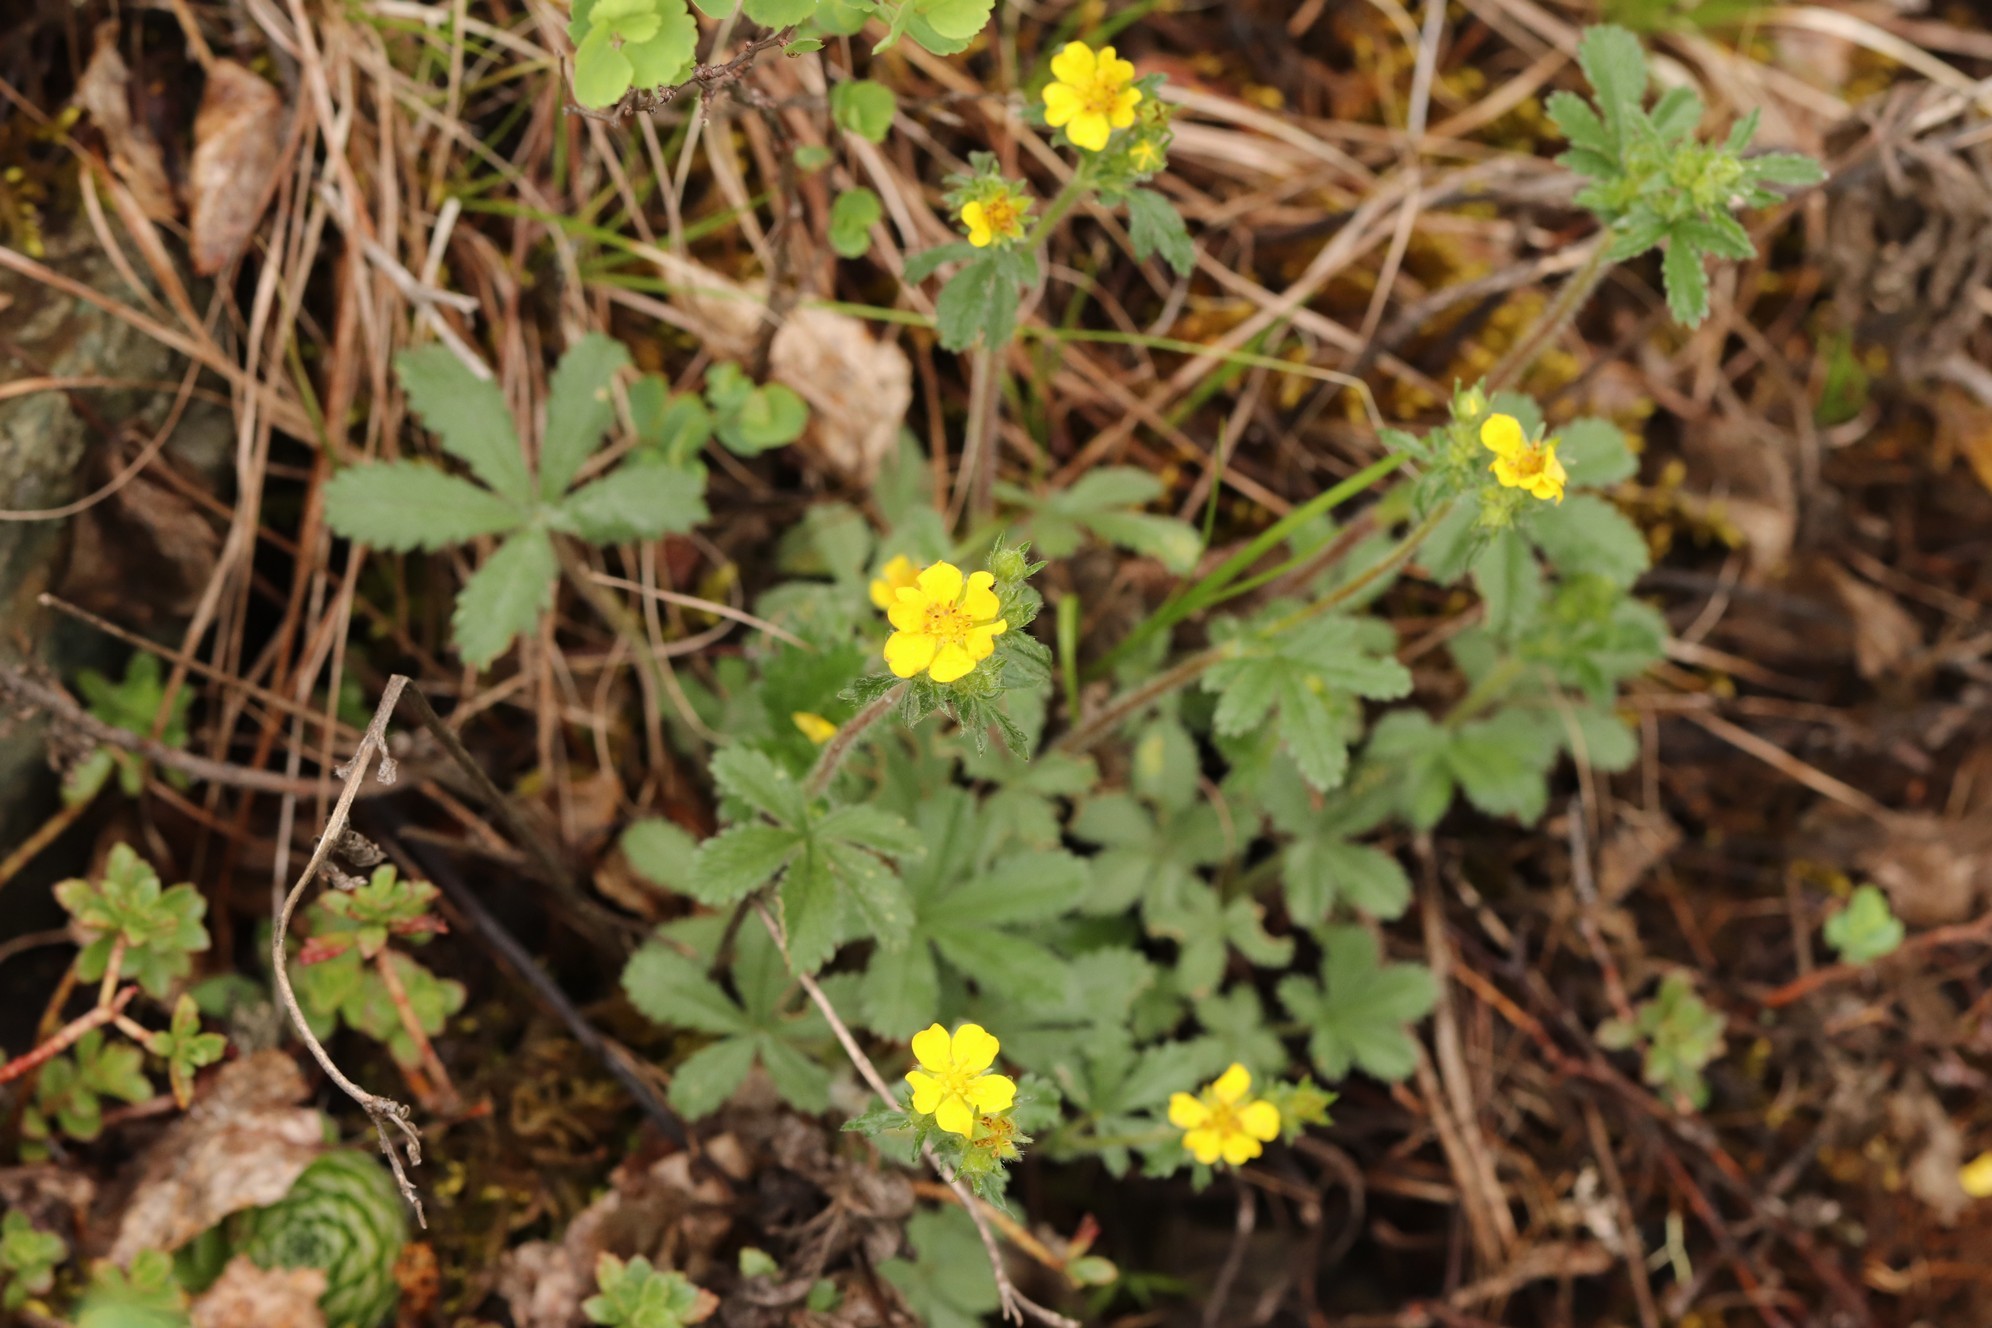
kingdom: Plantae
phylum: Tracheophyta
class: Magnoliopsida
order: Rosales
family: Rosaceae
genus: Potentilla
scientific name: Potentilla chrysantha
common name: Thuringian cinquefoil
